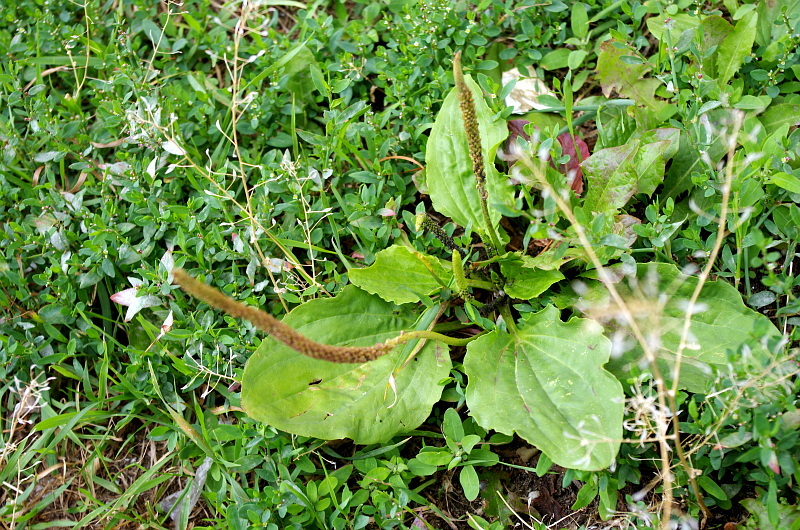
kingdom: Plantae
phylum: Tracheophyta
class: Magnoliopsida
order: Lamiales
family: Plantaginaceae
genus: Plantago
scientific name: Plantago major
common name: Common plantain
